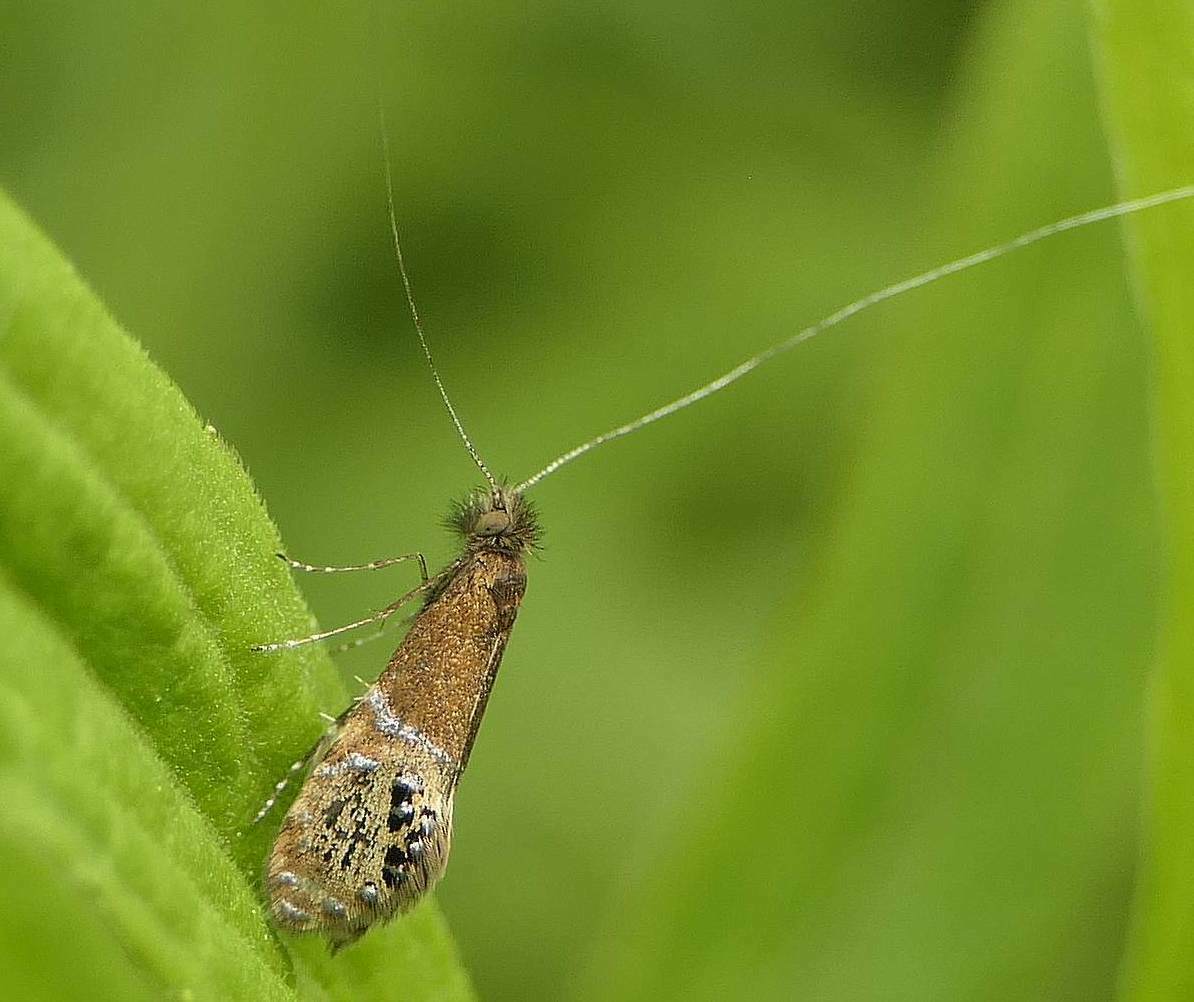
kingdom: Animalia
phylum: Arthropoda
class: Insecta
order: Lepidoptera
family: Adelidae
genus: Adela
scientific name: Adela ridingsella
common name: Ridings' fairy moth
